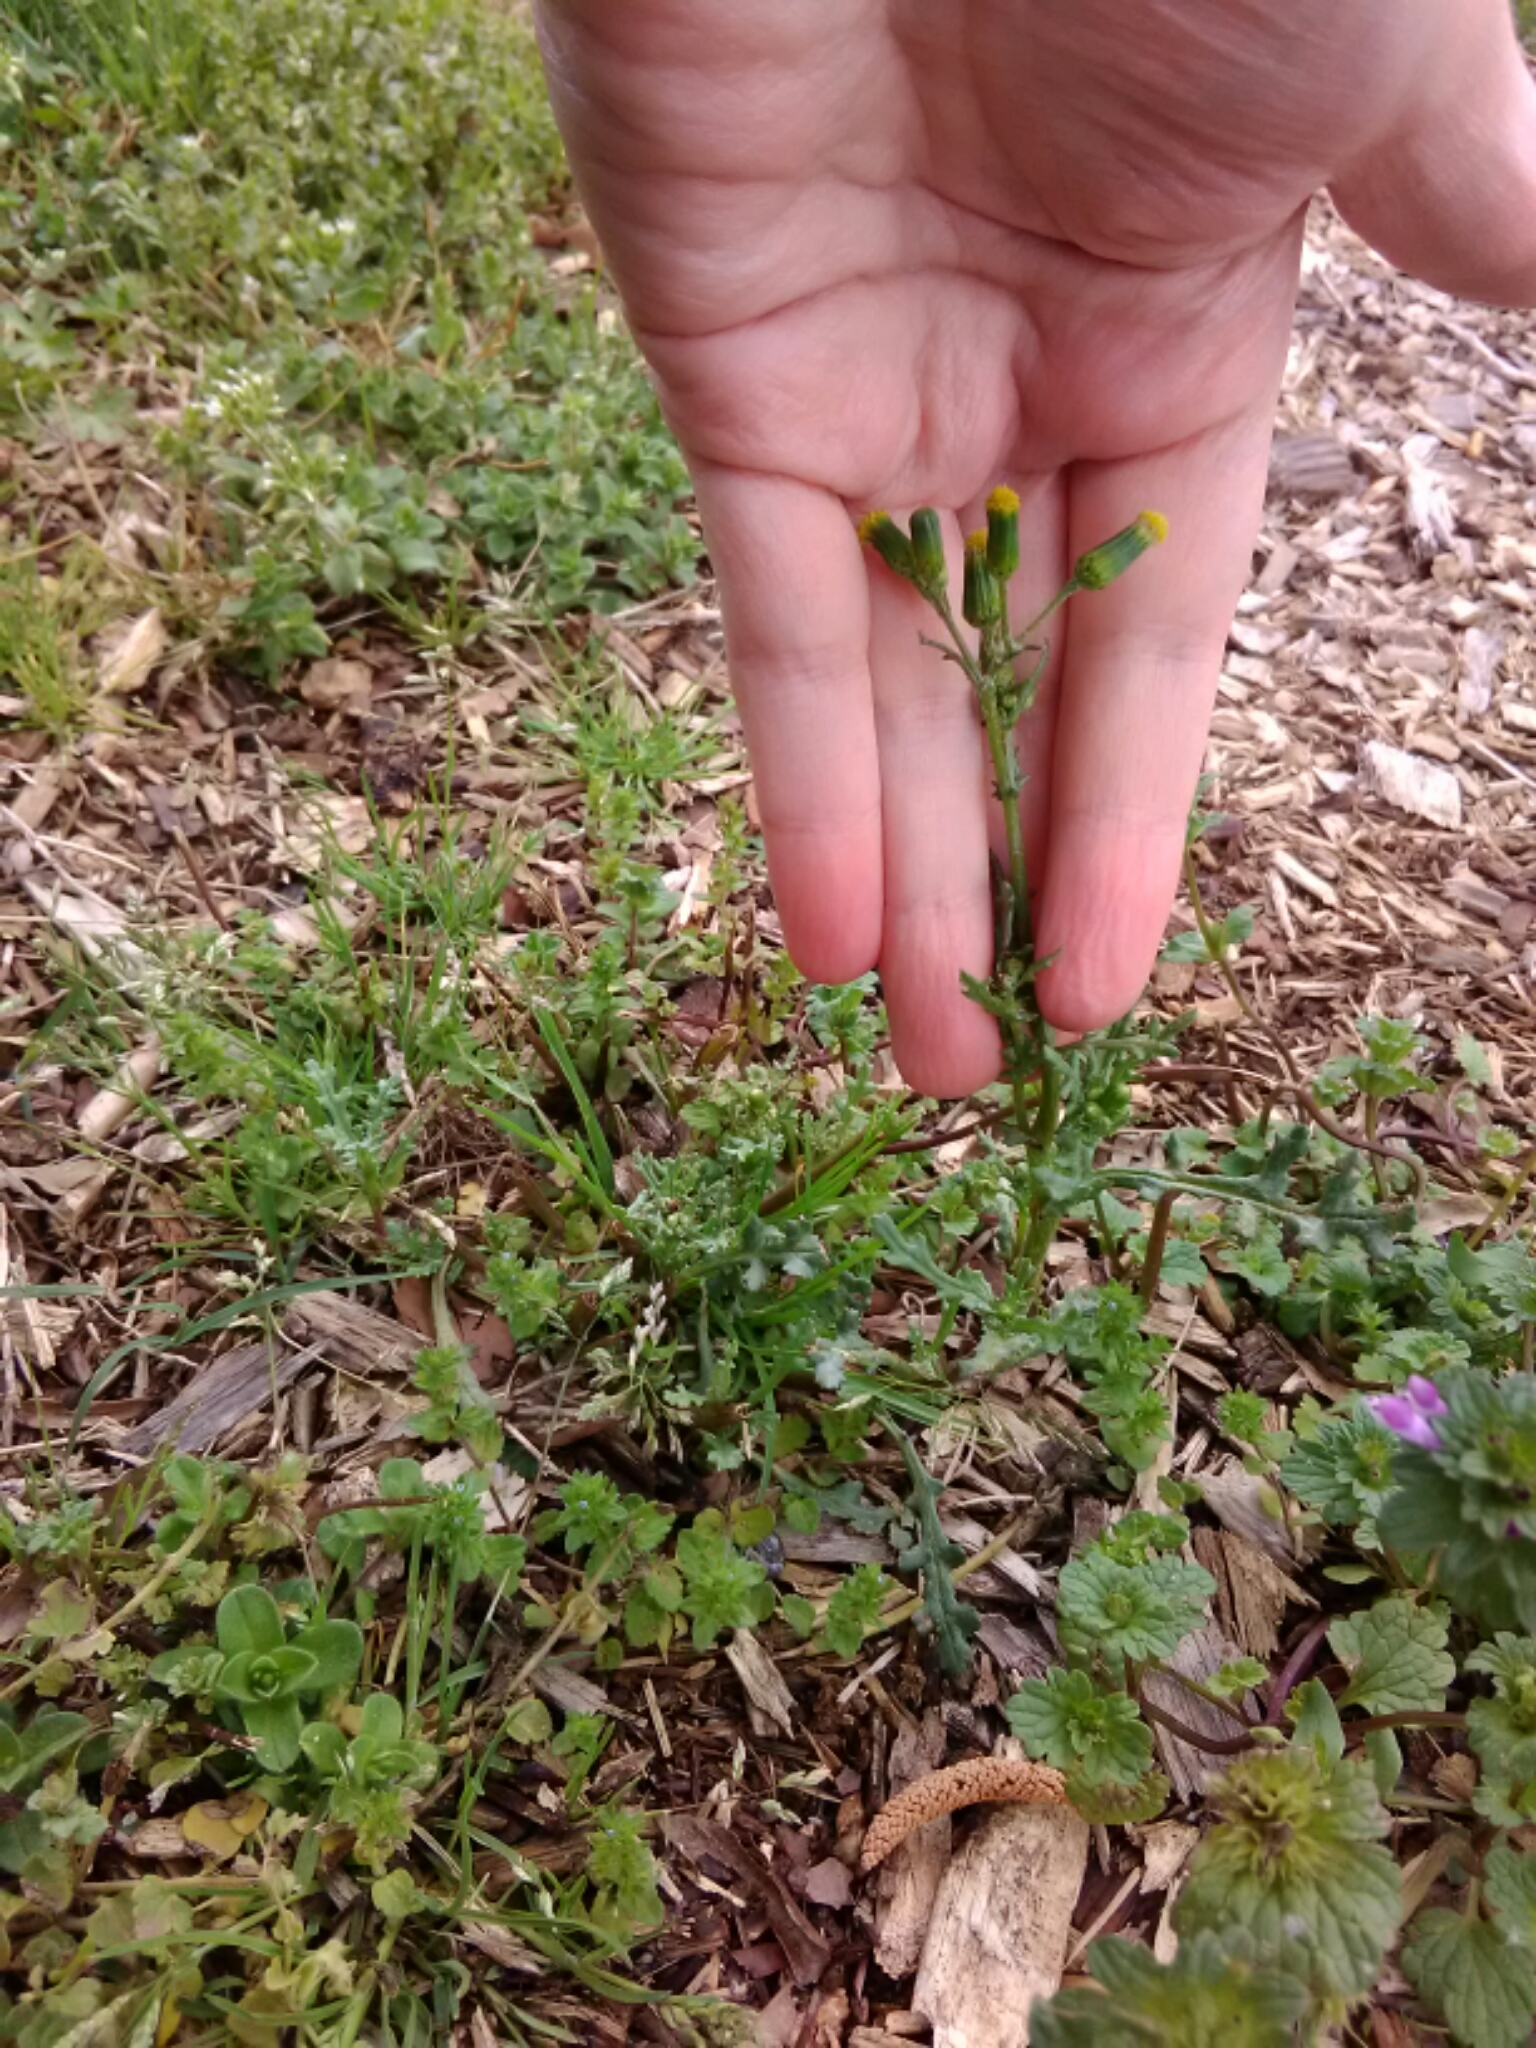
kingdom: Plantae
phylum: Tracheophyta
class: Magnoliopsida
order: Asterales
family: Asteraceae
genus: Senecio
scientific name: Senecio vulgaris
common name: Old-man-in-the-spring
